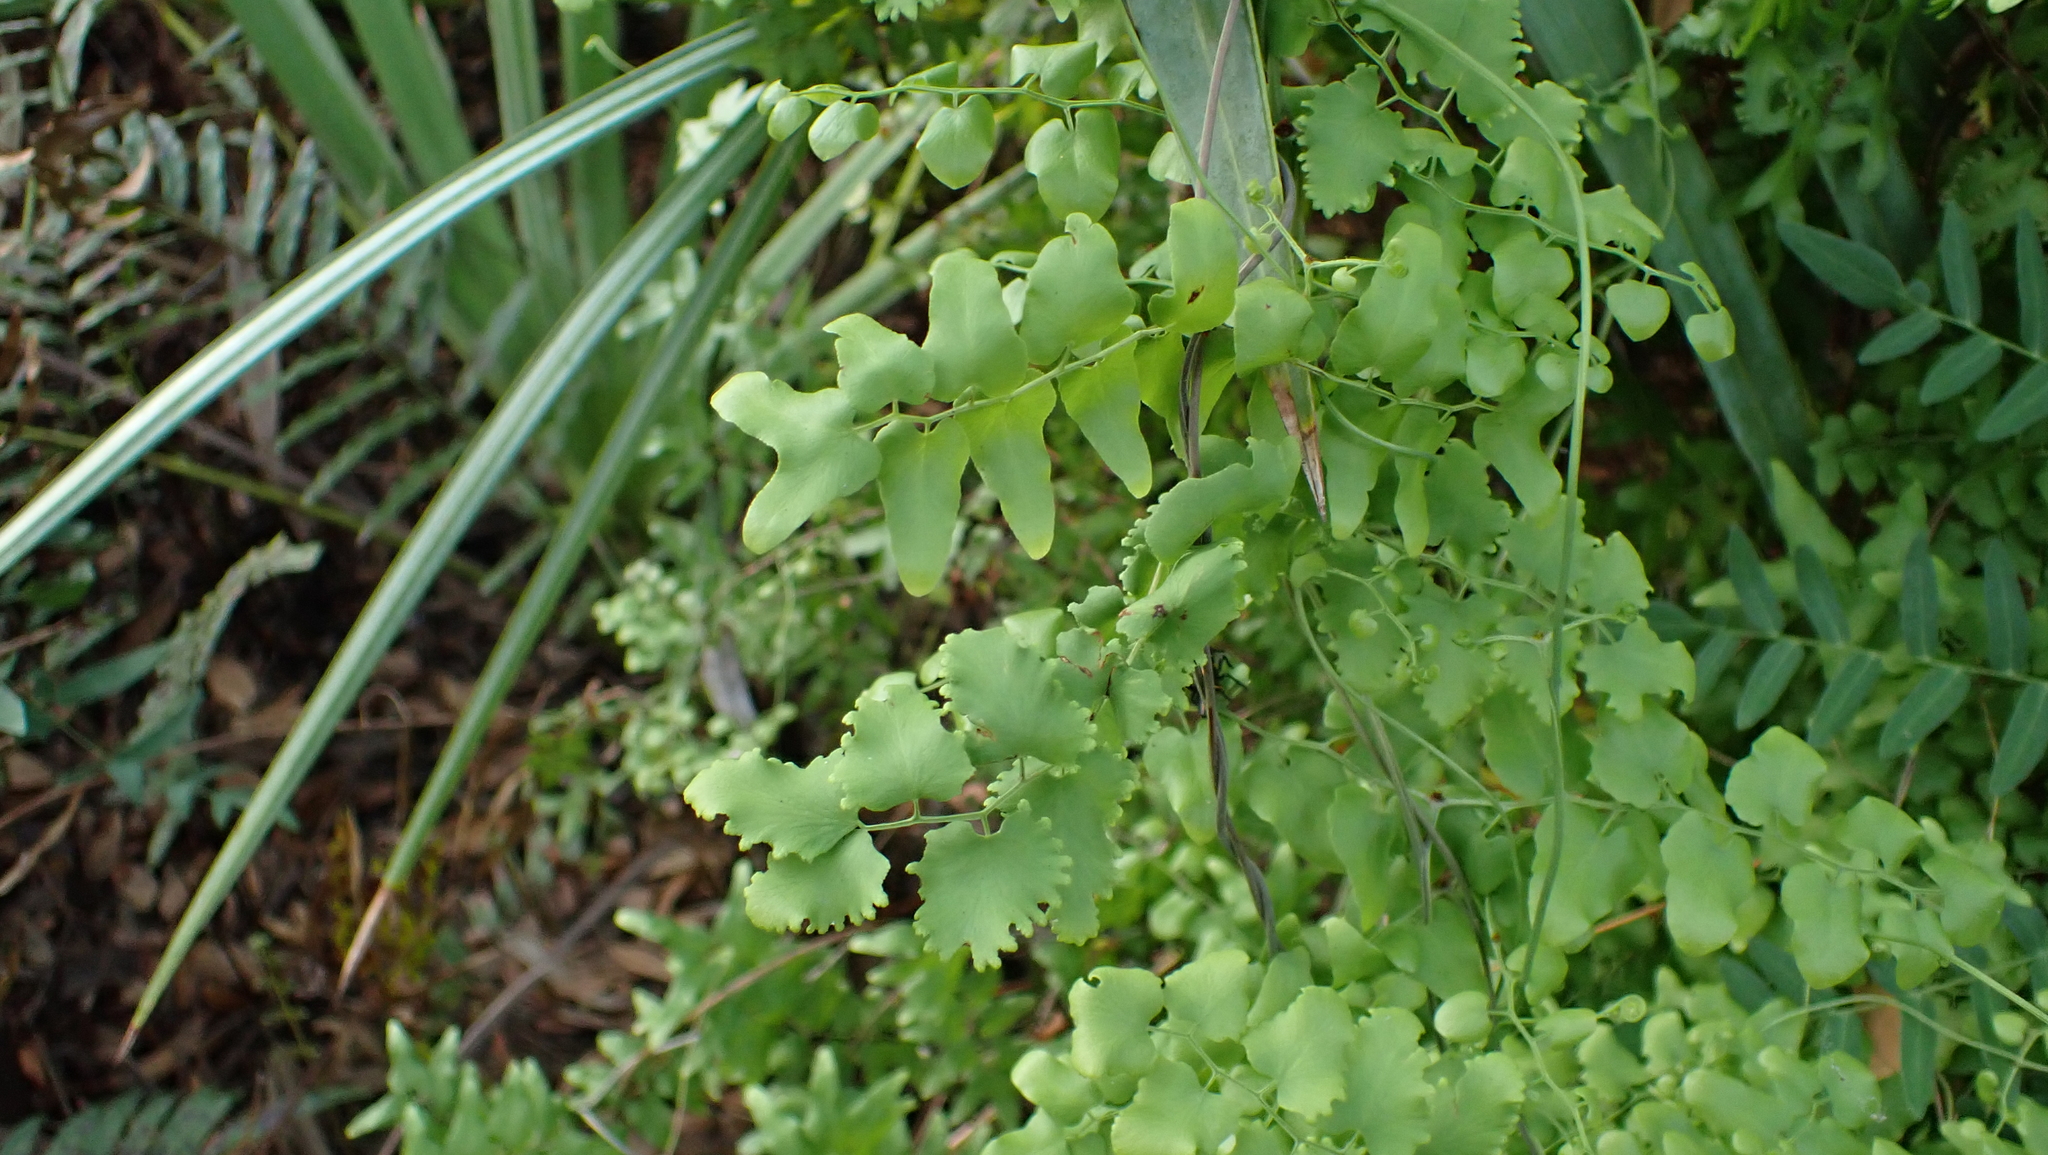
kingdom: Plantae
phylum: Tracheophyta
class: Polypodiopsida
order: Schizaeales
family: Lygodiaceae
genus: Lygodium
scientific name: Lygodium microphyllum
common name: Small-leaf climbing fern
